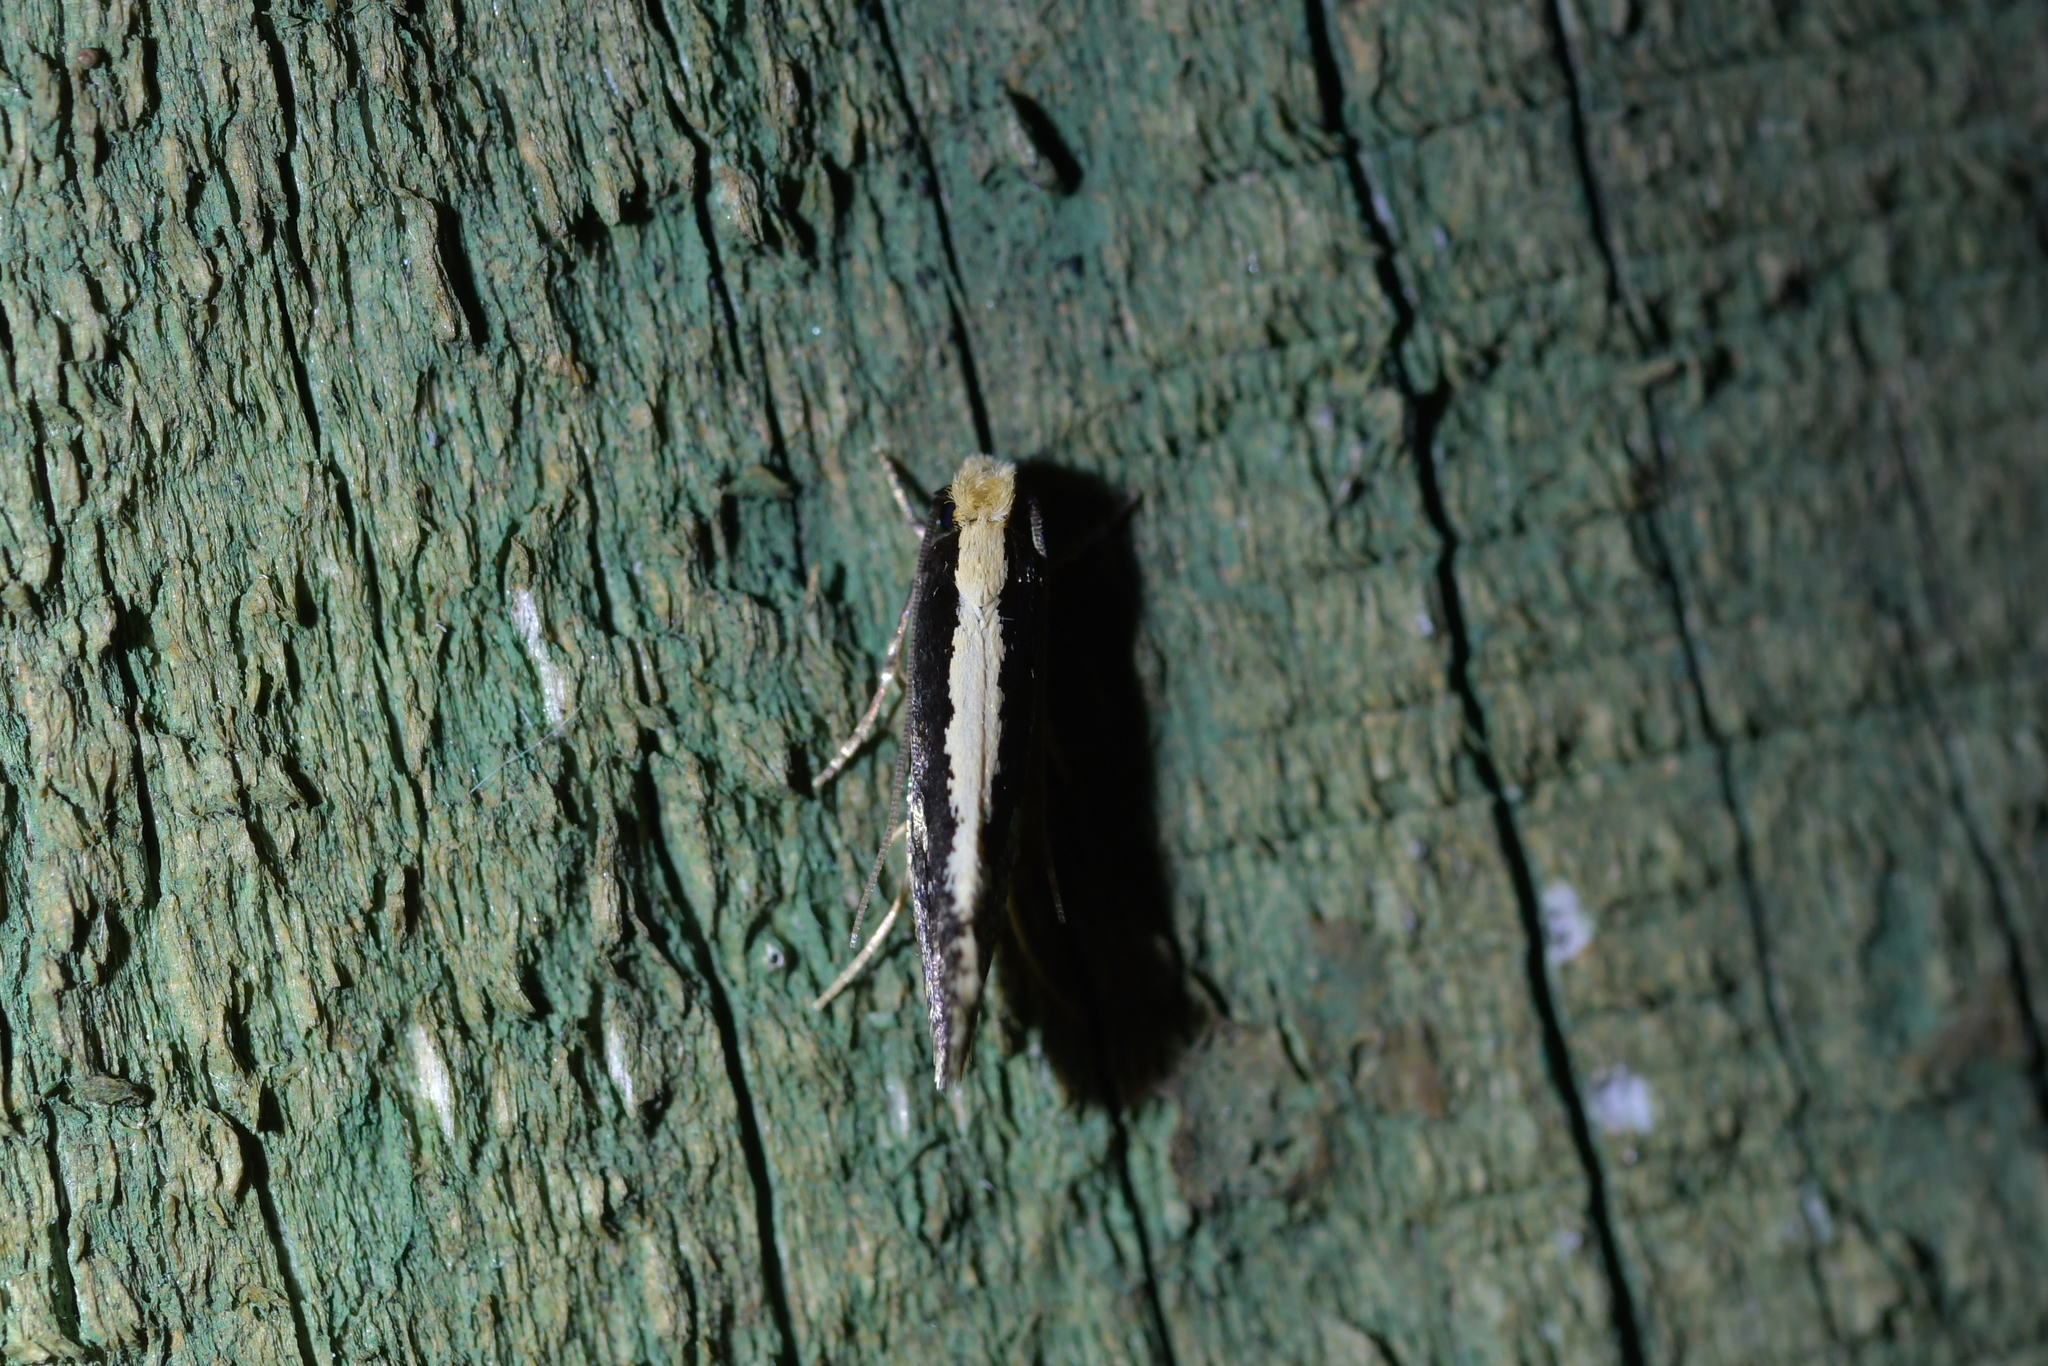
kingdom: Animalia
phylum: Arthropoda
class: Insecta
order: Lepidoptera
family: Tineidae
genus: Monopis
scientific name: Monopis ethelella
